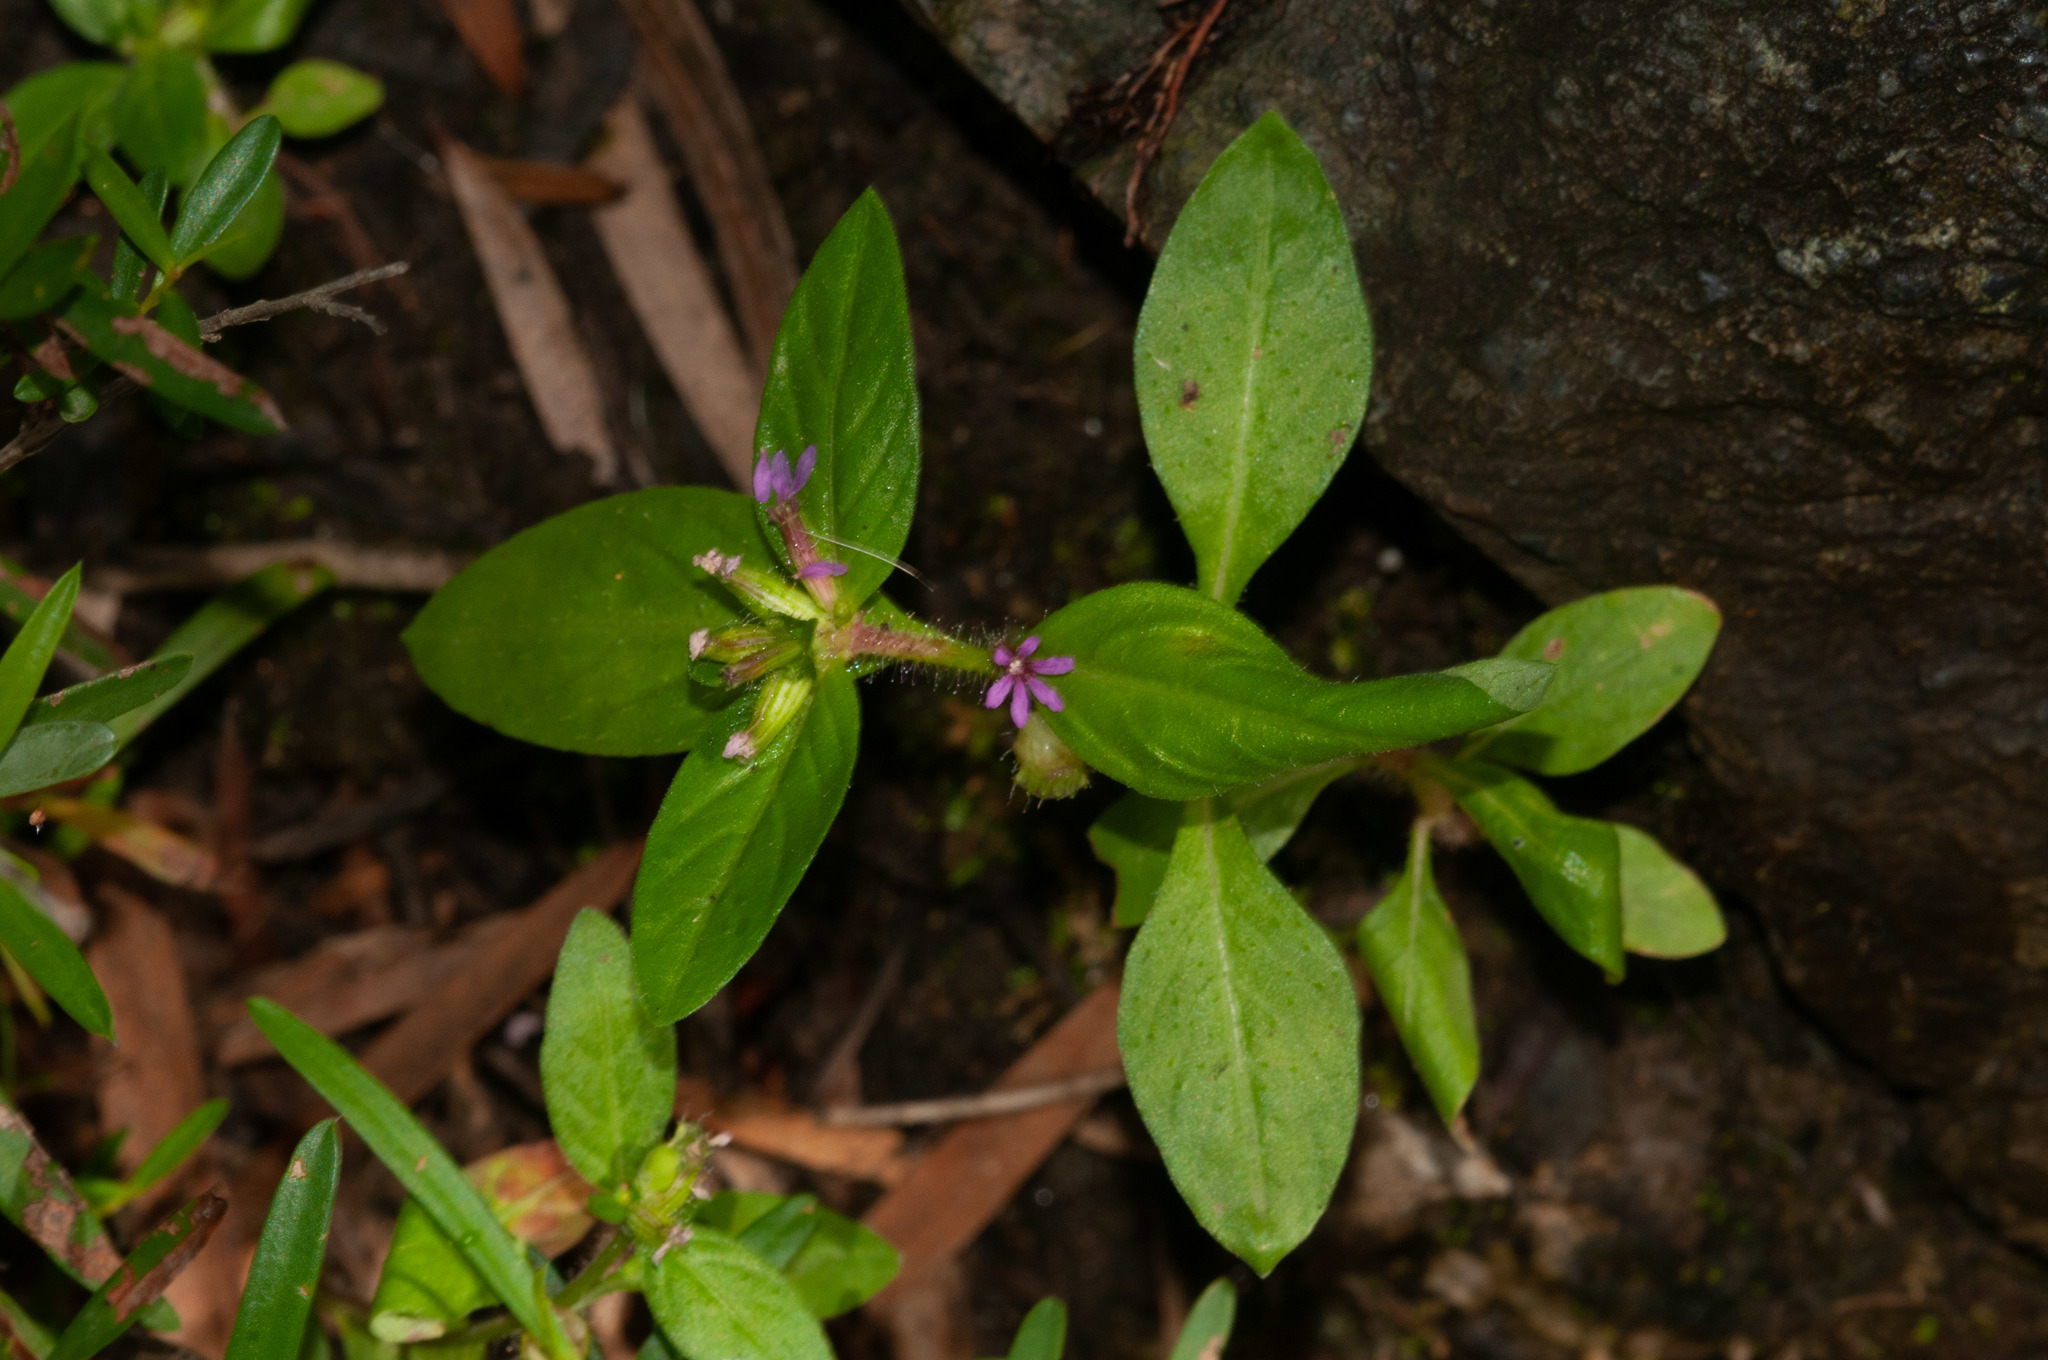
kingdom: Plantae
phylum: Tracheophyta
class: Magnoliopsida
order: Myrtales
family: Lythraceae
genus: Cuphea
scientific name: Cuphea carthagenensis
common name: Colombian waxweed
